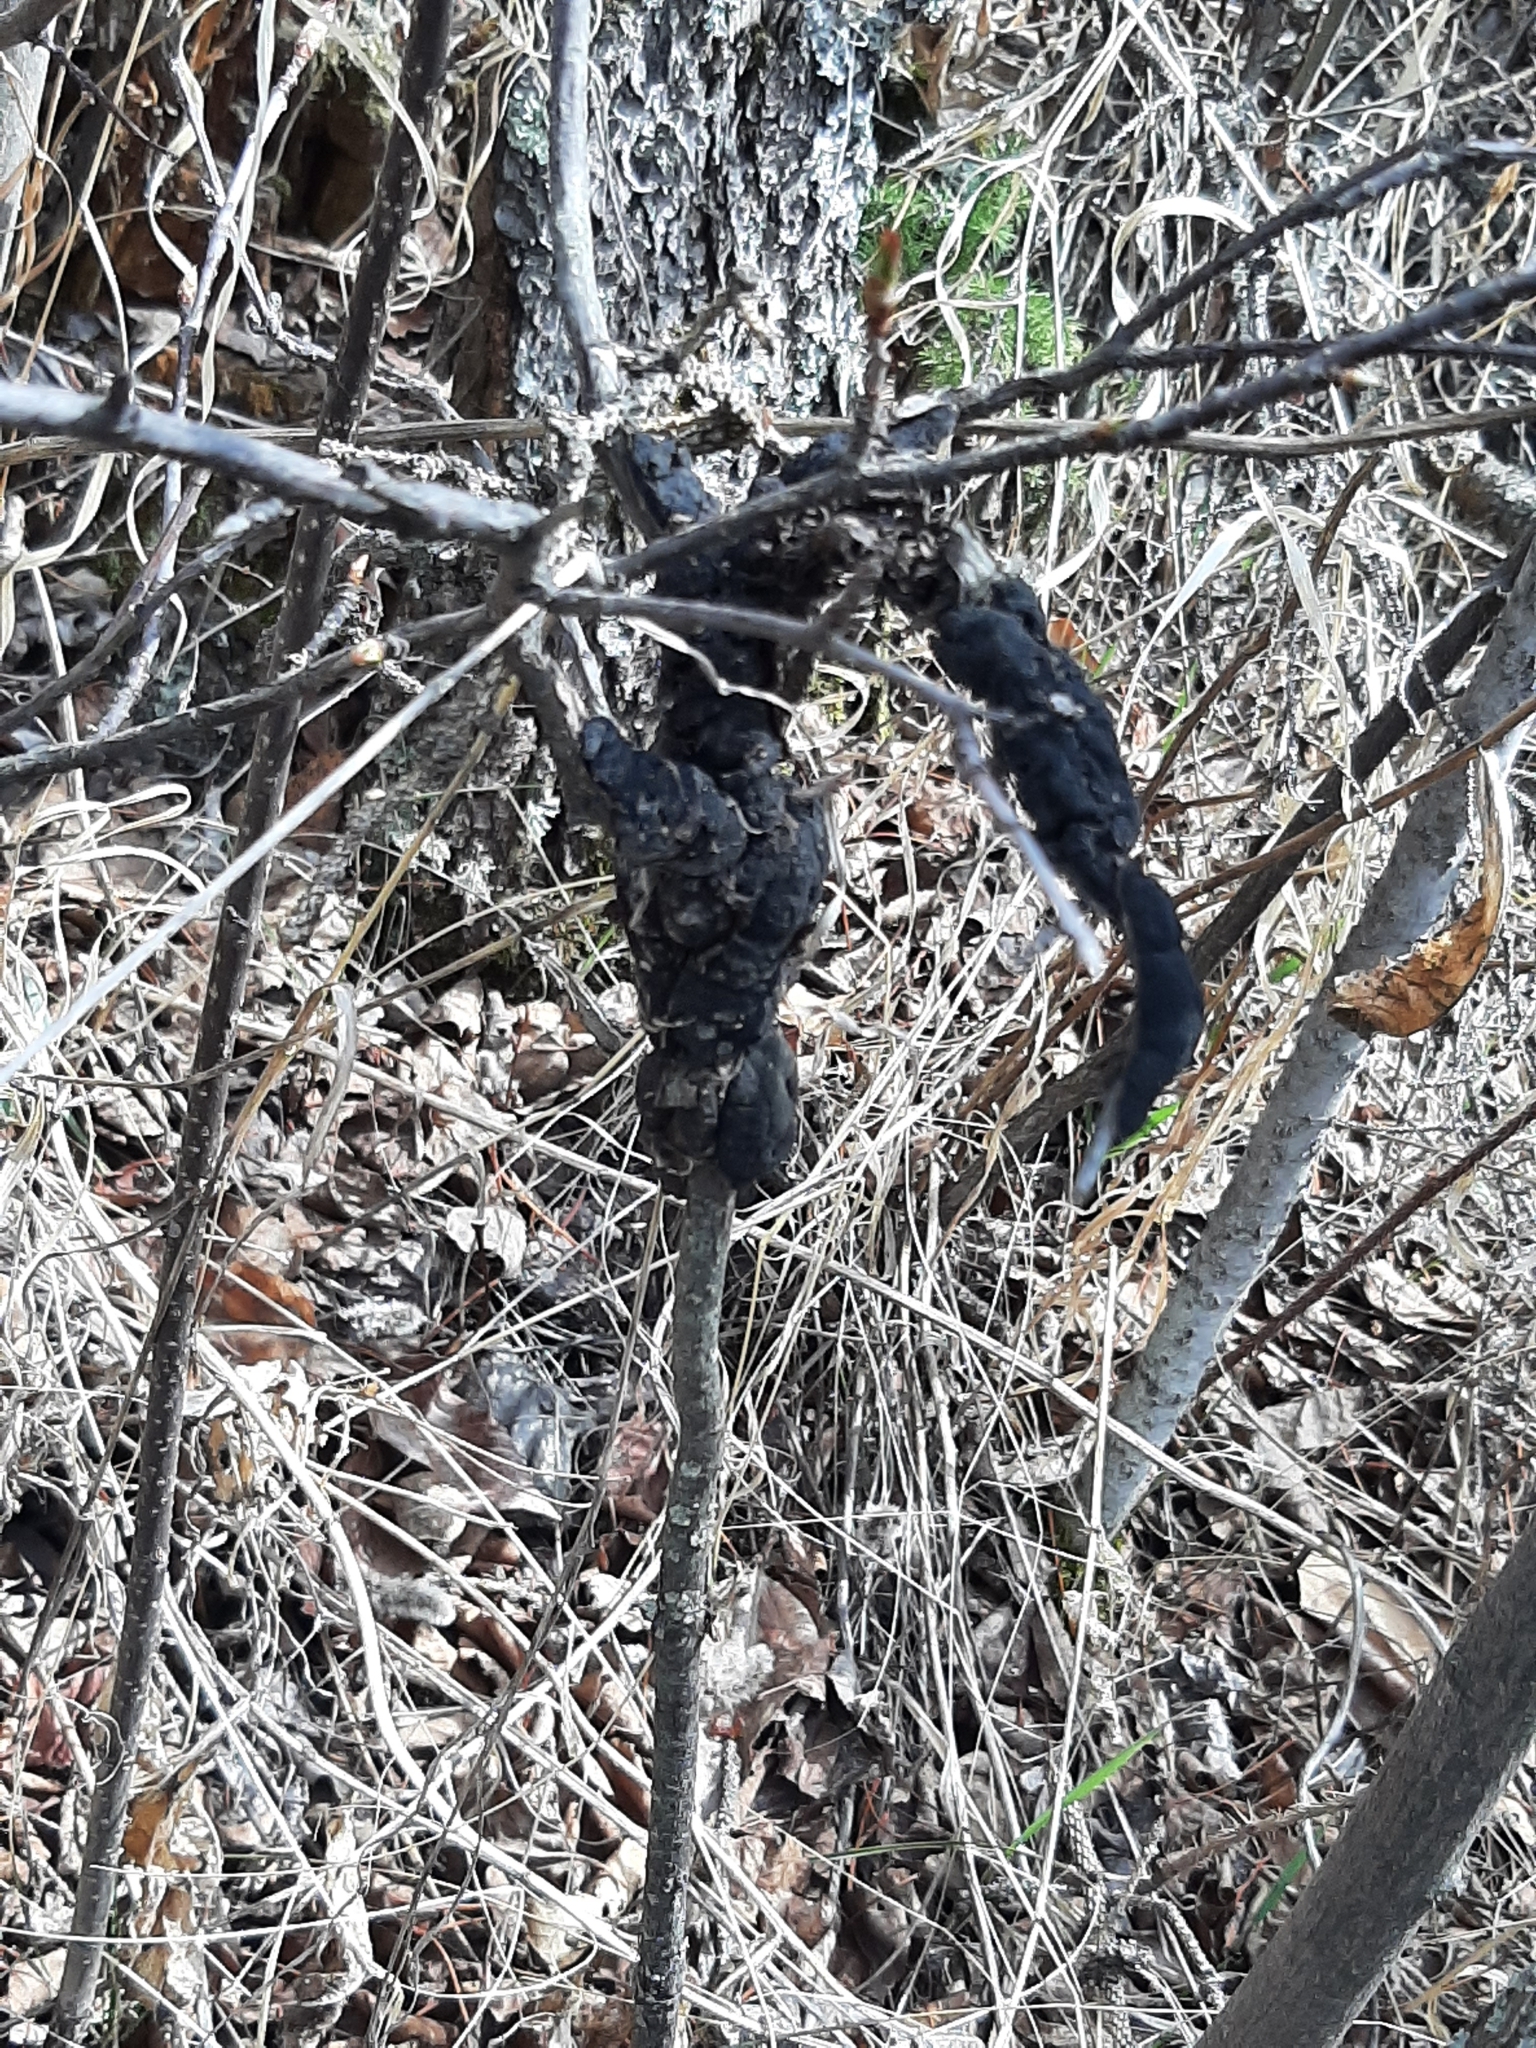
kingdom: Fungi
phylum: Ascomycota
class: Dothideomycetes
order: Venturiales
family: Venturiaceae
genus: Apiosporina
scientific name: Apiosporina morbosa
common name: Black knot
